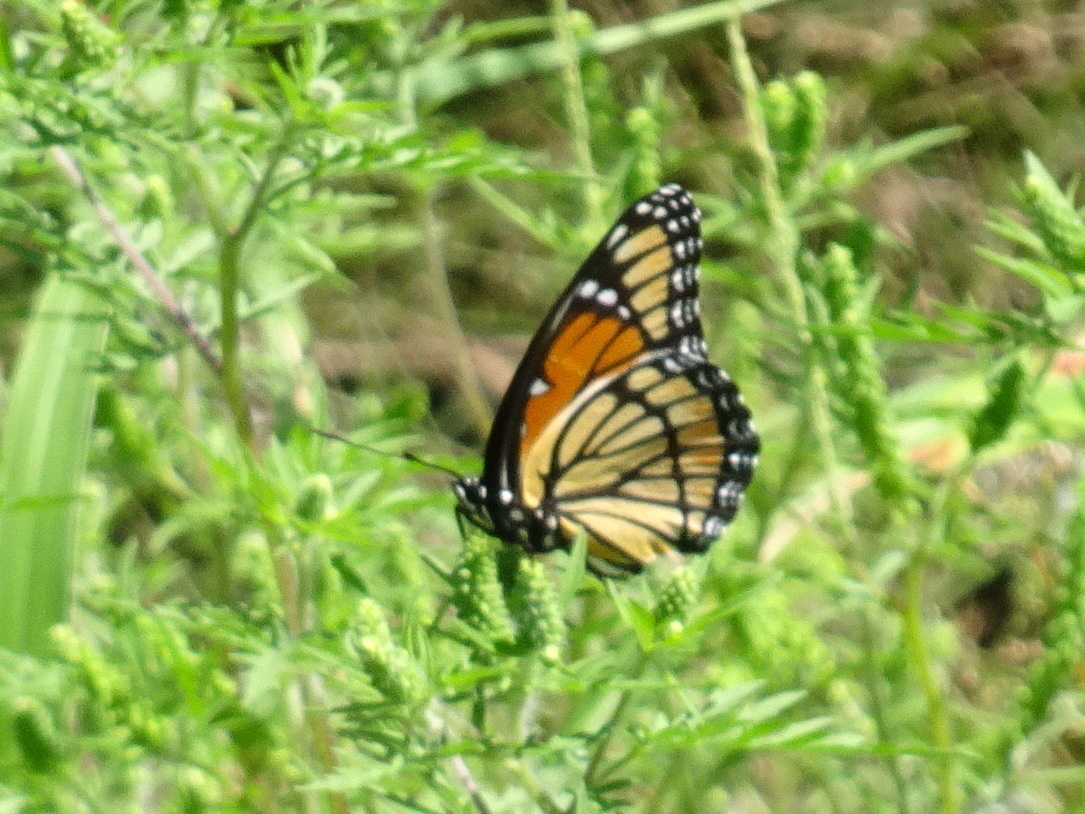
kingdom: Animalia
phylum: Arthropoda
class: Insecta
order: Lepidoptera
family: Nymphalidae
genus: Limenitis
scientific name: Limenitis archippus
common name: Viceroy
